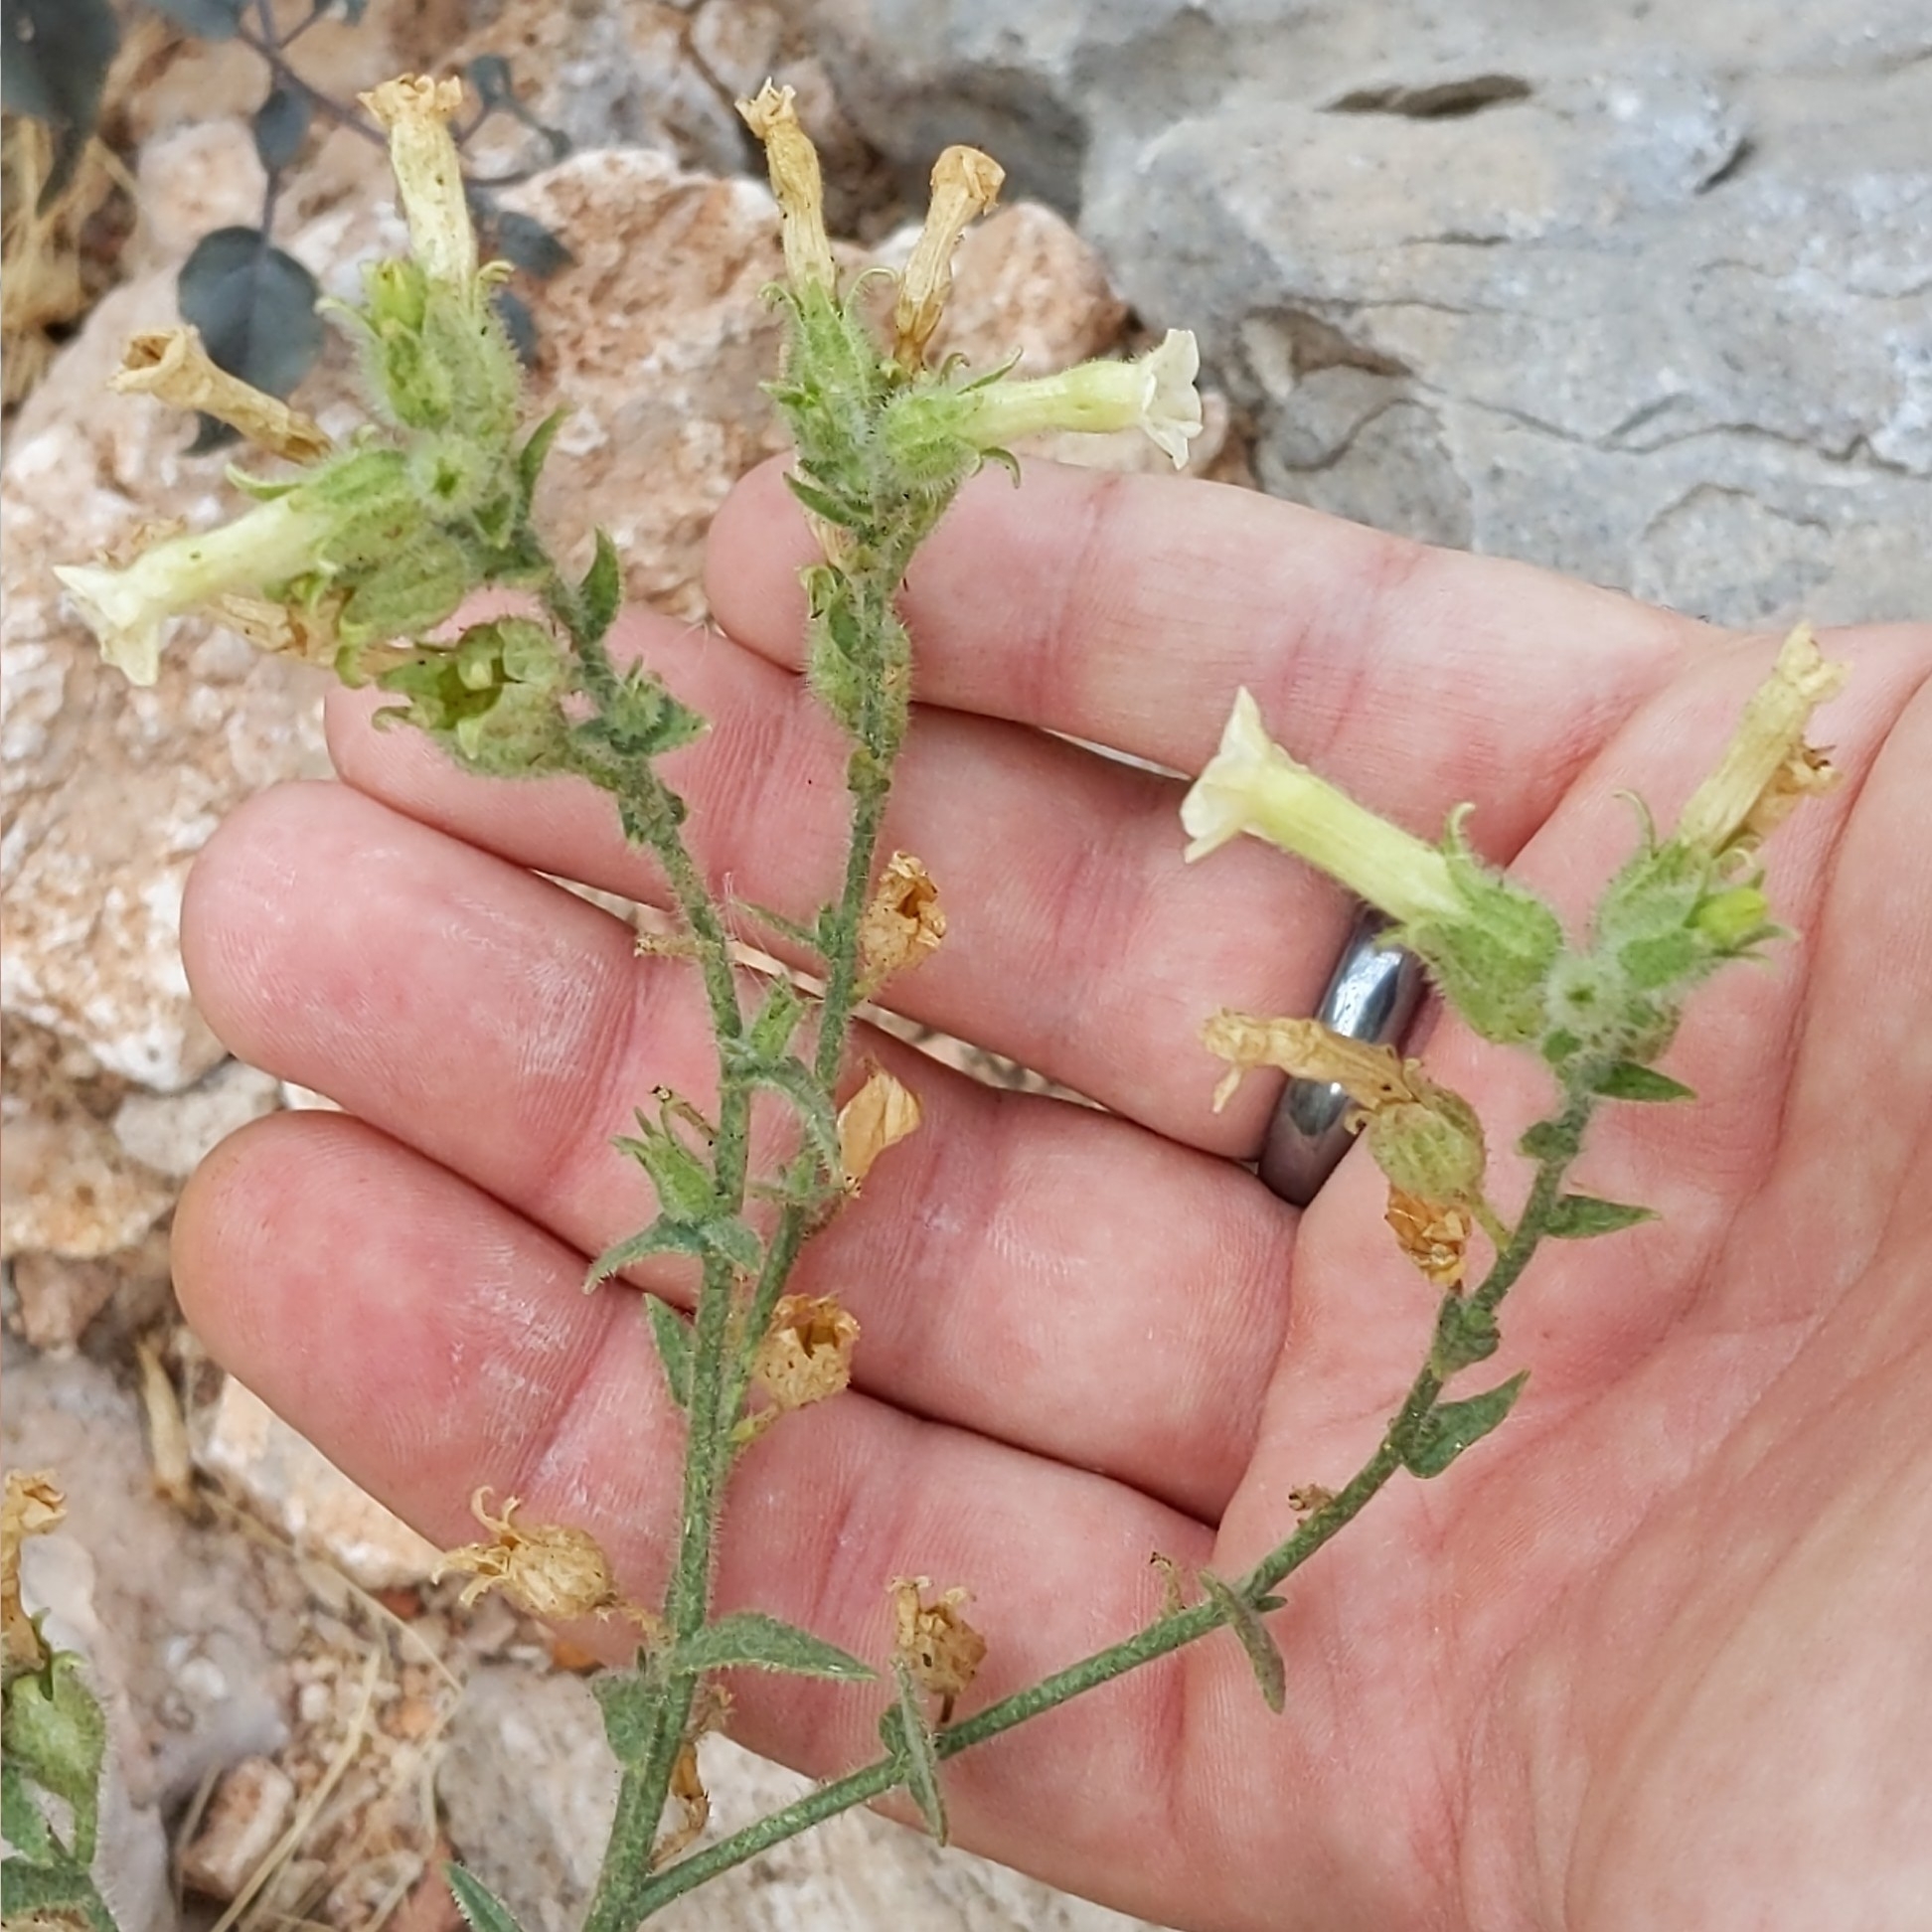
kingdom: Plantae
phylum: Tracheophyta
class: Magnoliopsida
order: Solanales
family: Solanaceae
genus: Nicotiana
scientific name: Nicotiana obtusifolia
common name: Desert tobacco
